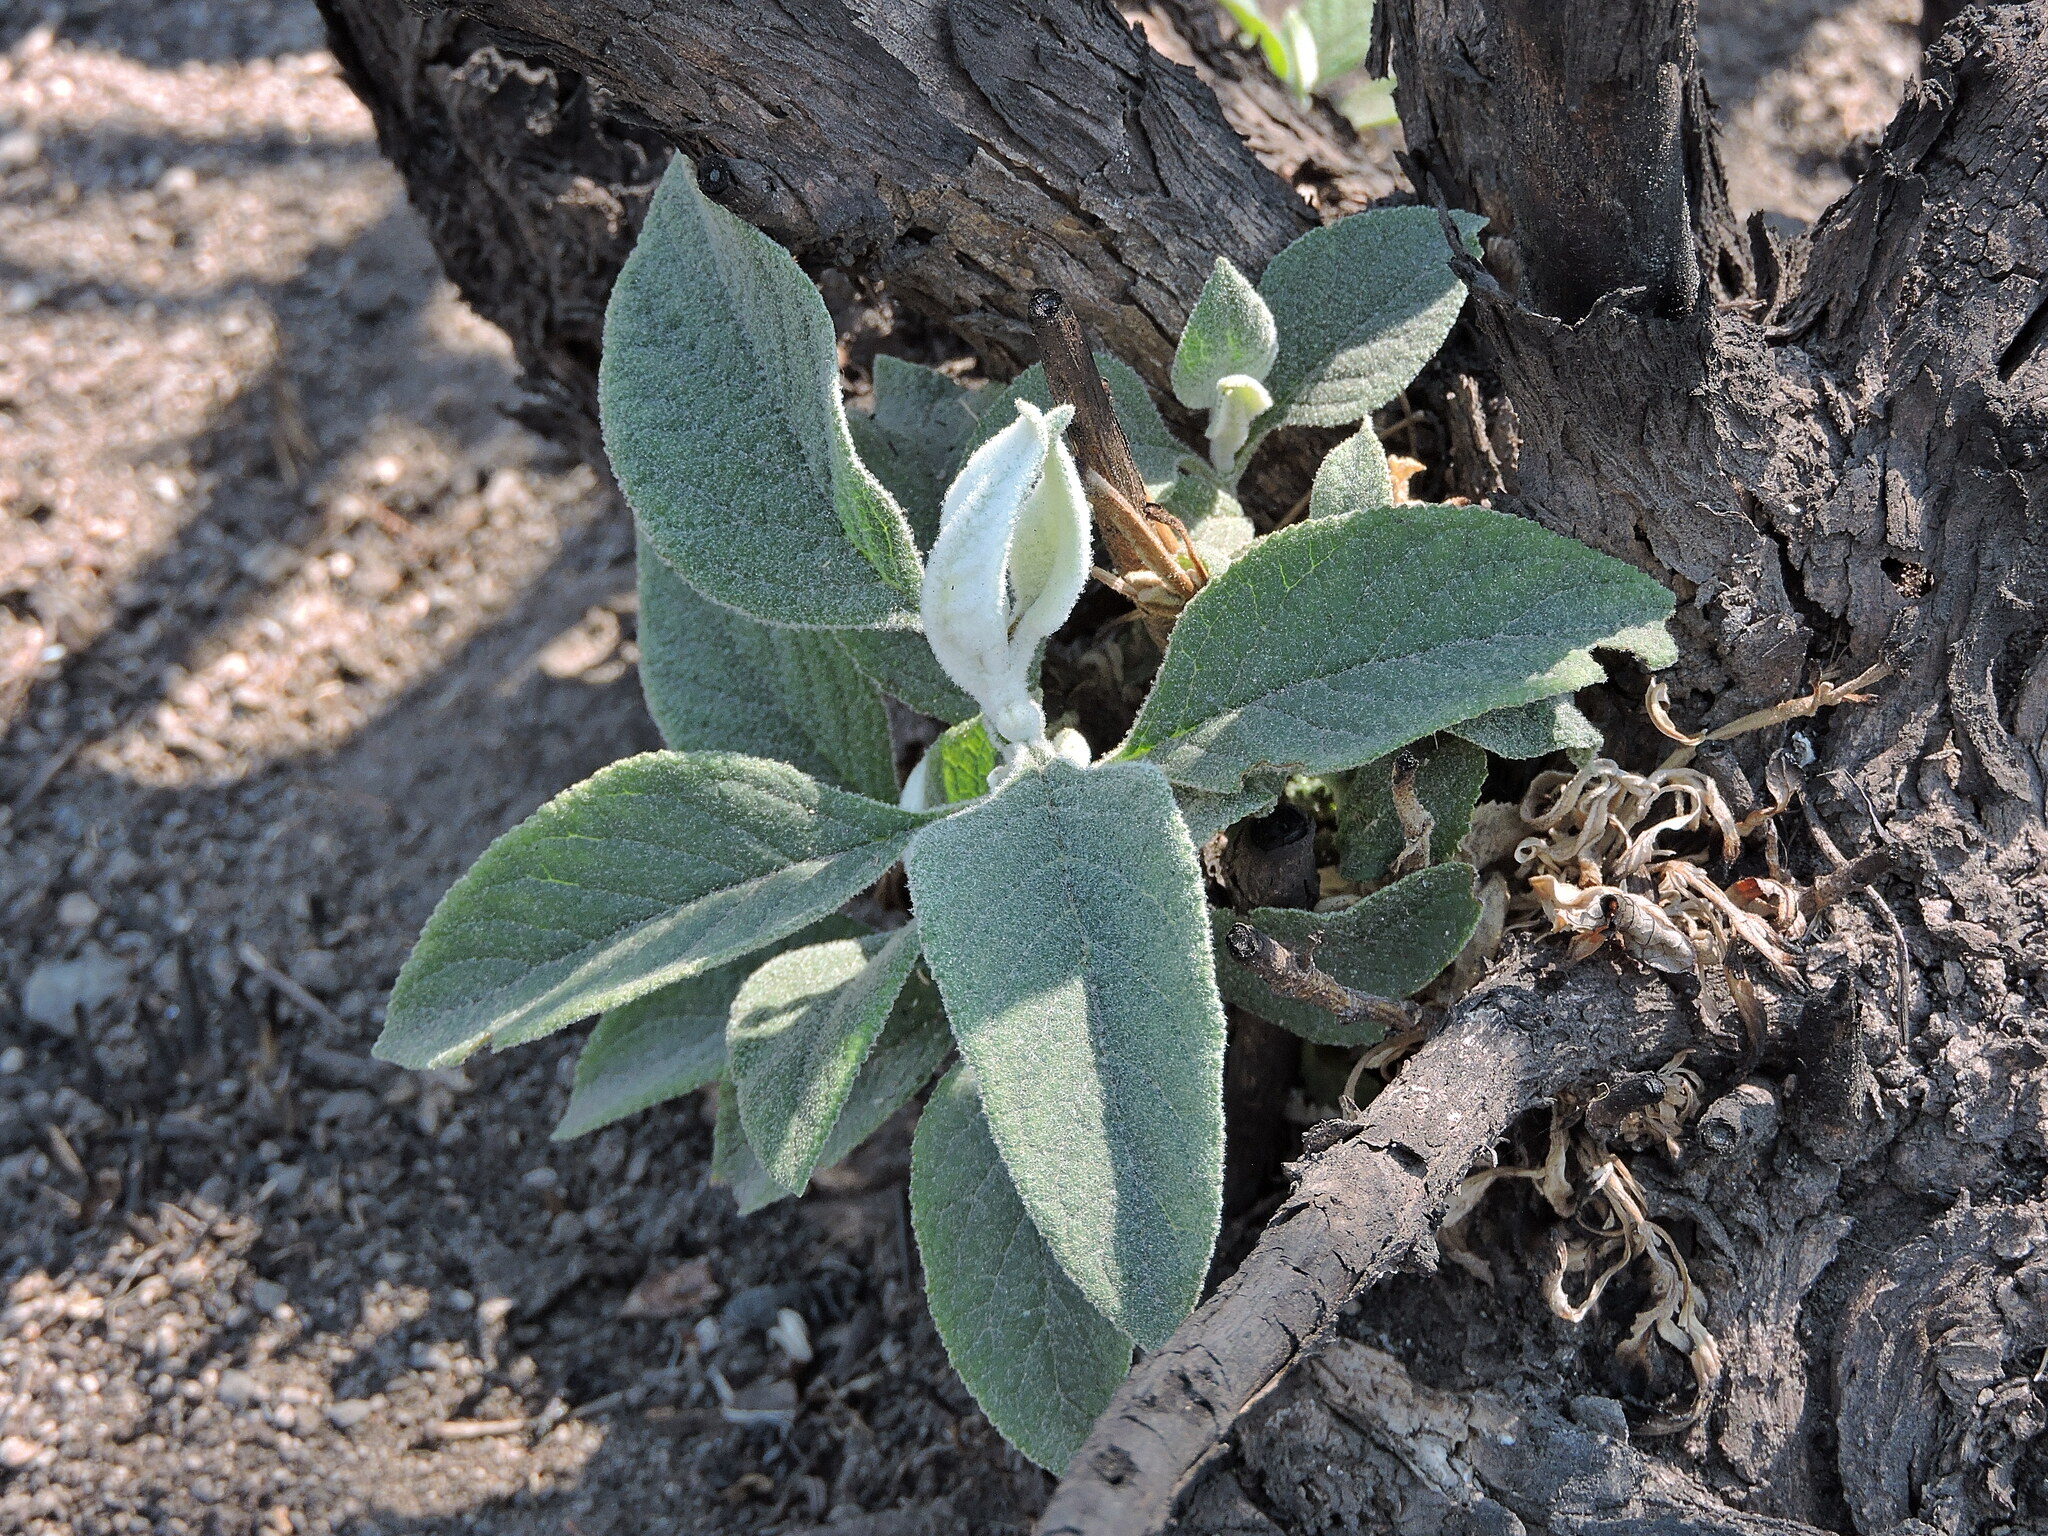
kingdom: Plantae
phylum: Tracheophyta
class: Magnoliopsida
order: Lamiales
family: Scrophulariaceae
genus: Buddleja
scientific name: Buddleja cordata
